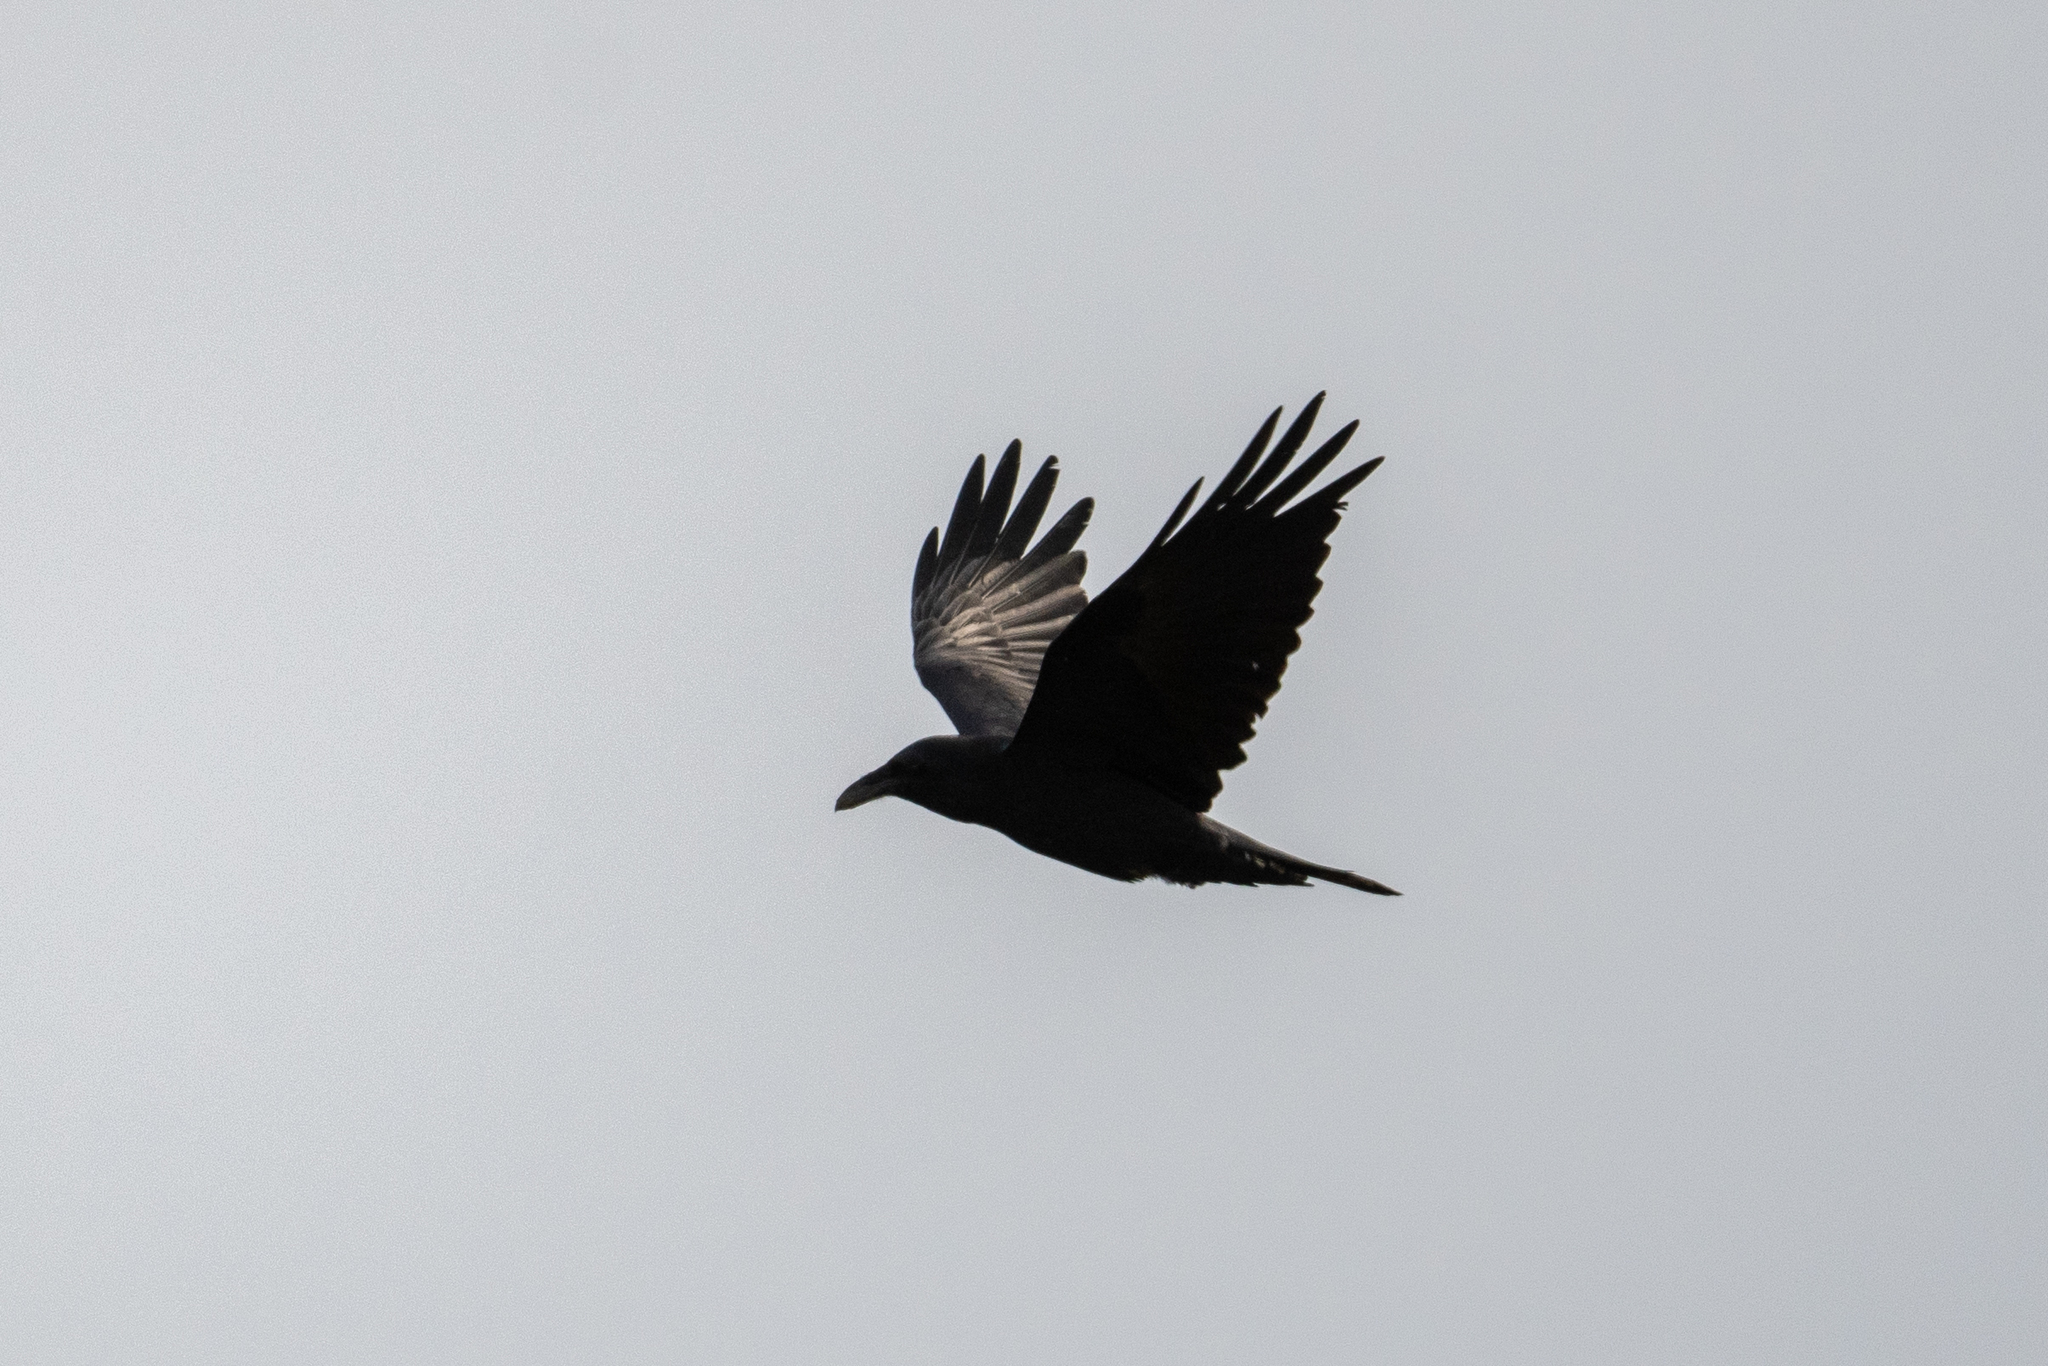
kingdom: Animalia
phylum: Chordata
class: Aves
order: Passeriformes
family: Corvidae
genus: Corvus
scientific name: Corvus corax
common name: Common raven
